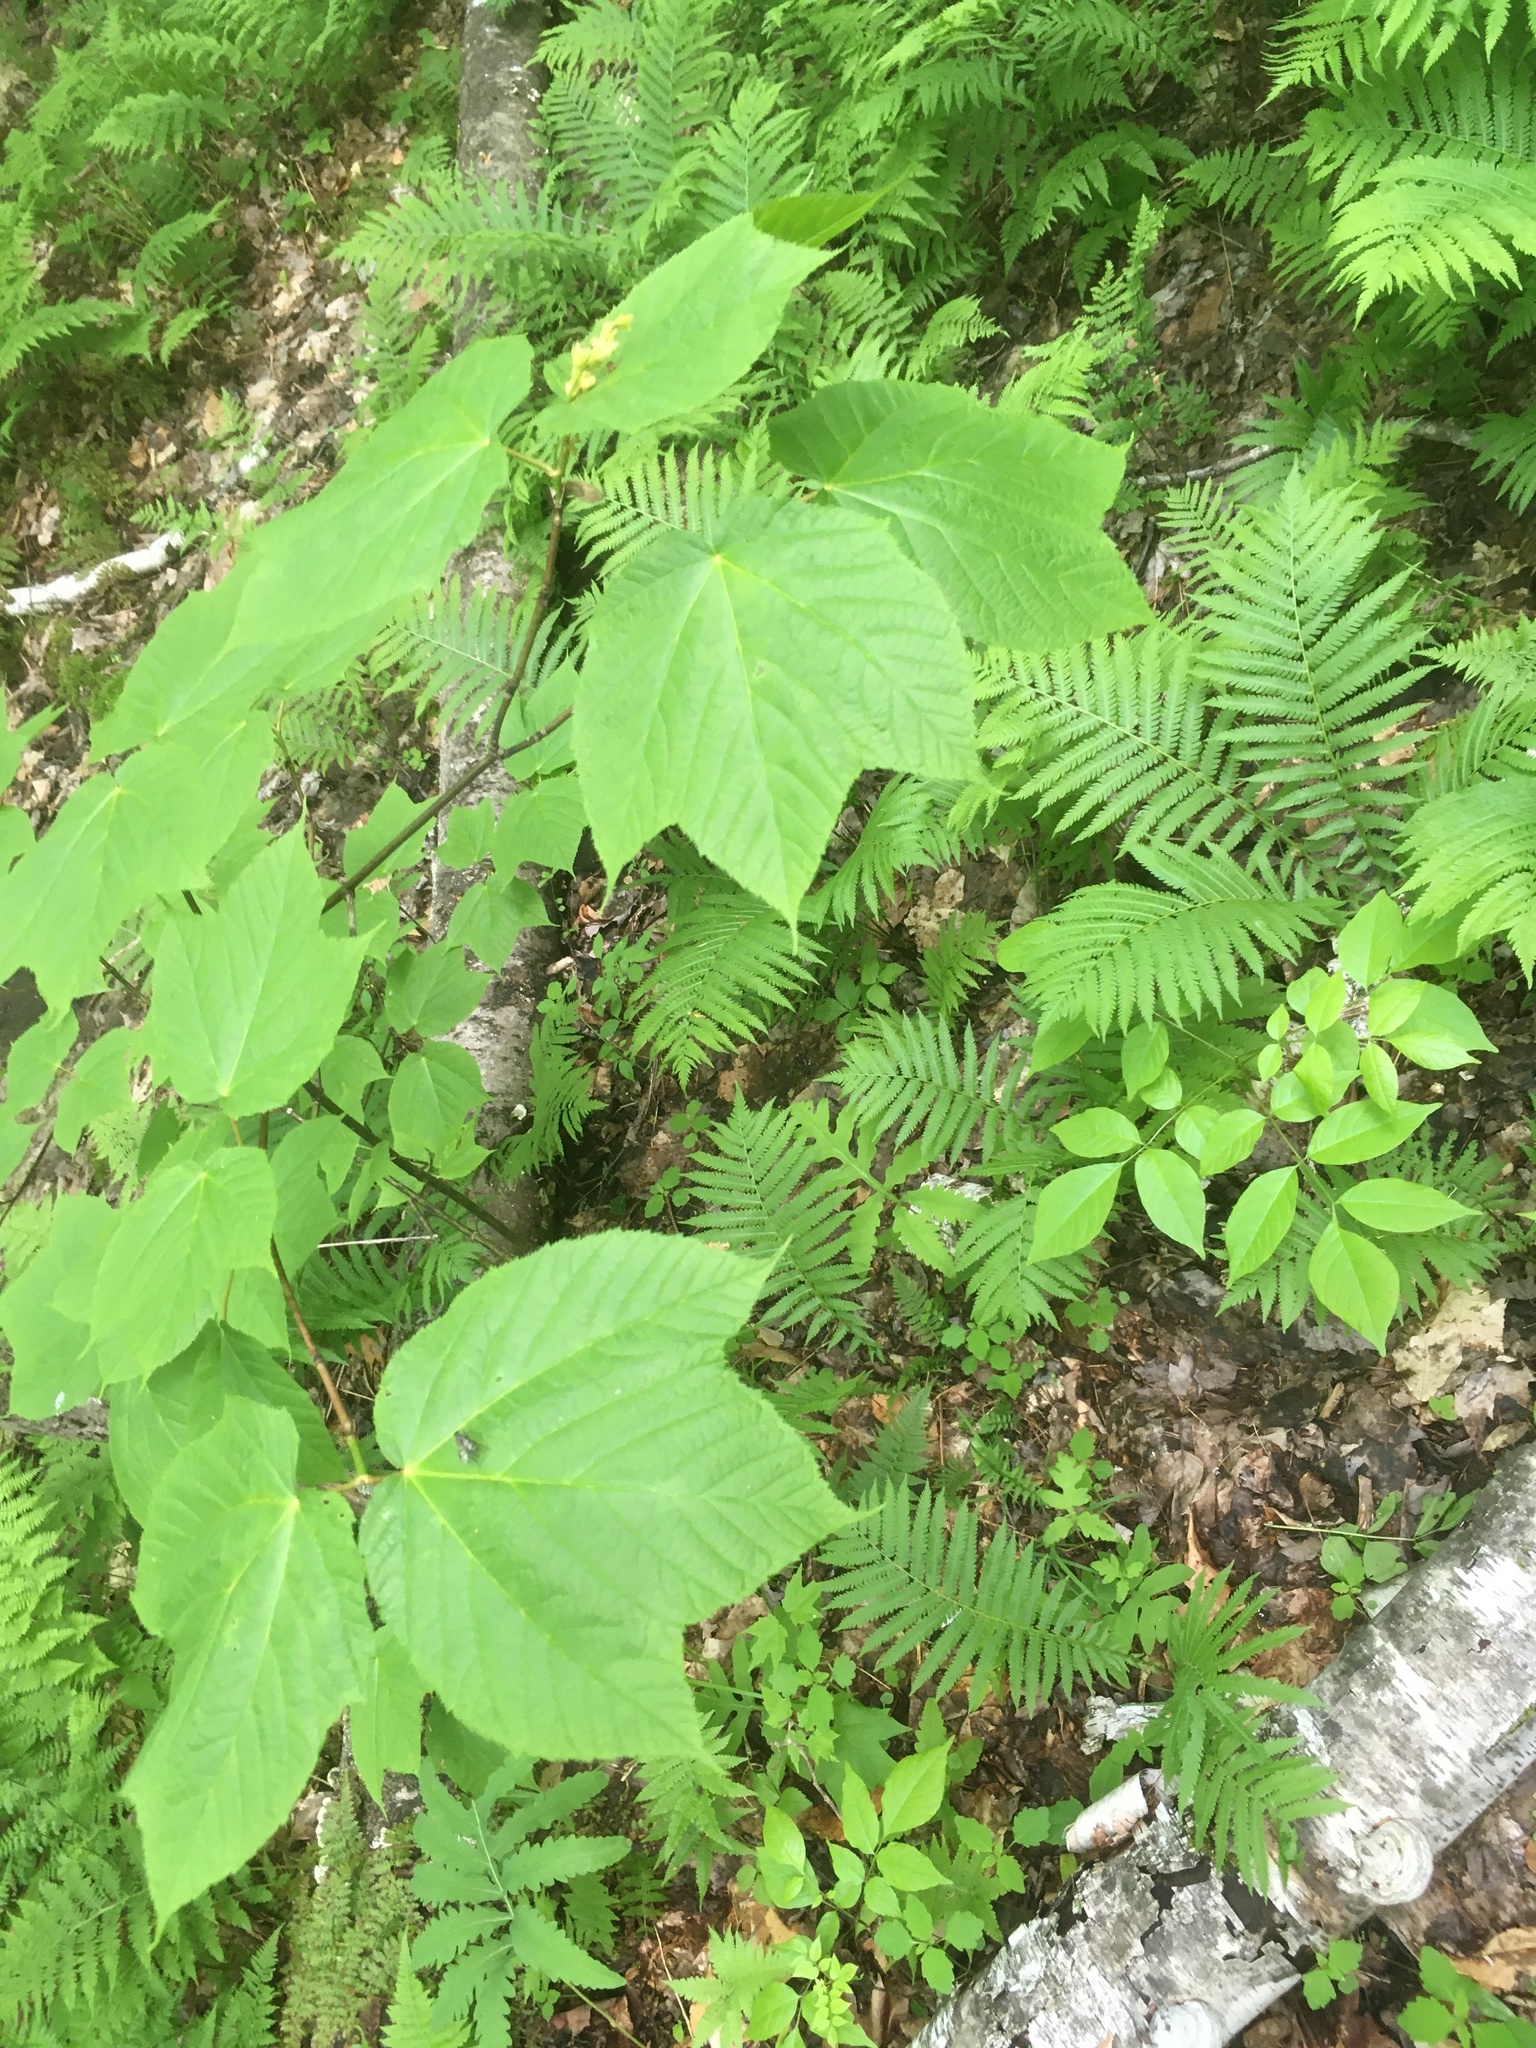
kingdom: Plantae
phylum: Tracheophyta
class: Magnoliopsida
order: Sapindales
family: Sapindaceae
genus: Acer
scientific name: Acer pensylvanicum
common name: Moosewood
